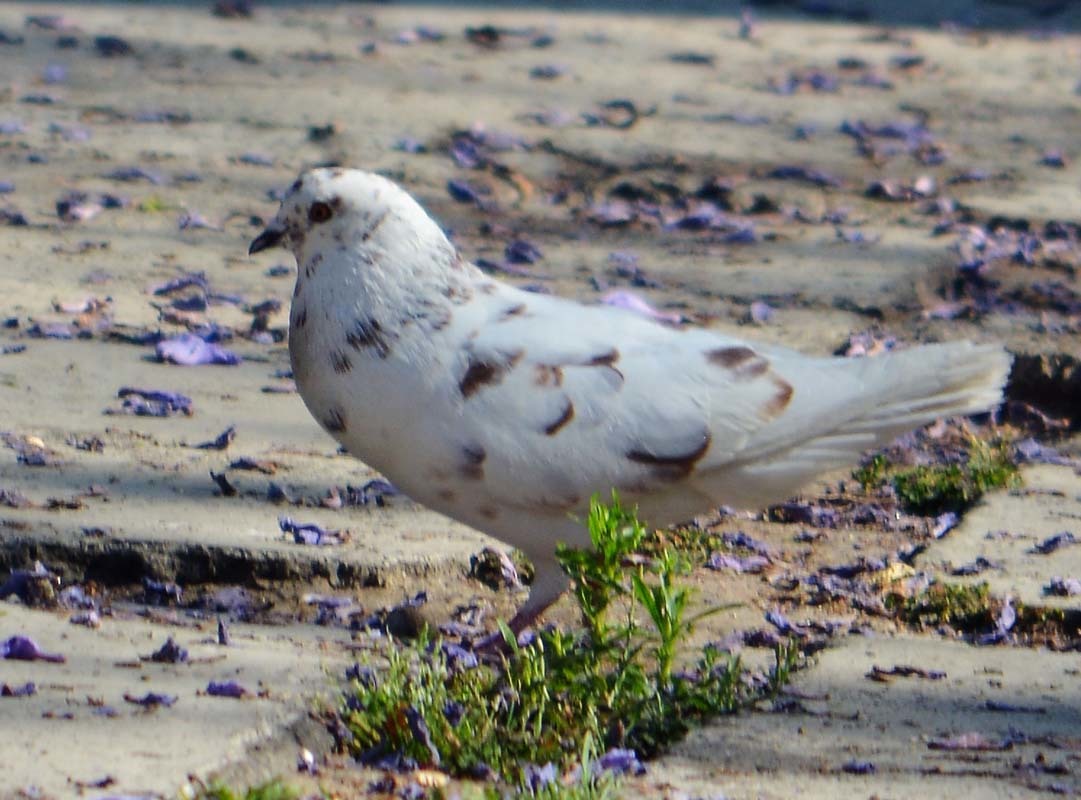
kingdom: Animalia
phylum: Chordata
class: Aves
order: Columbiformes
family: Columbidae
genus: Columba
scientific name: Columba livia
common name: Rock pigeon
